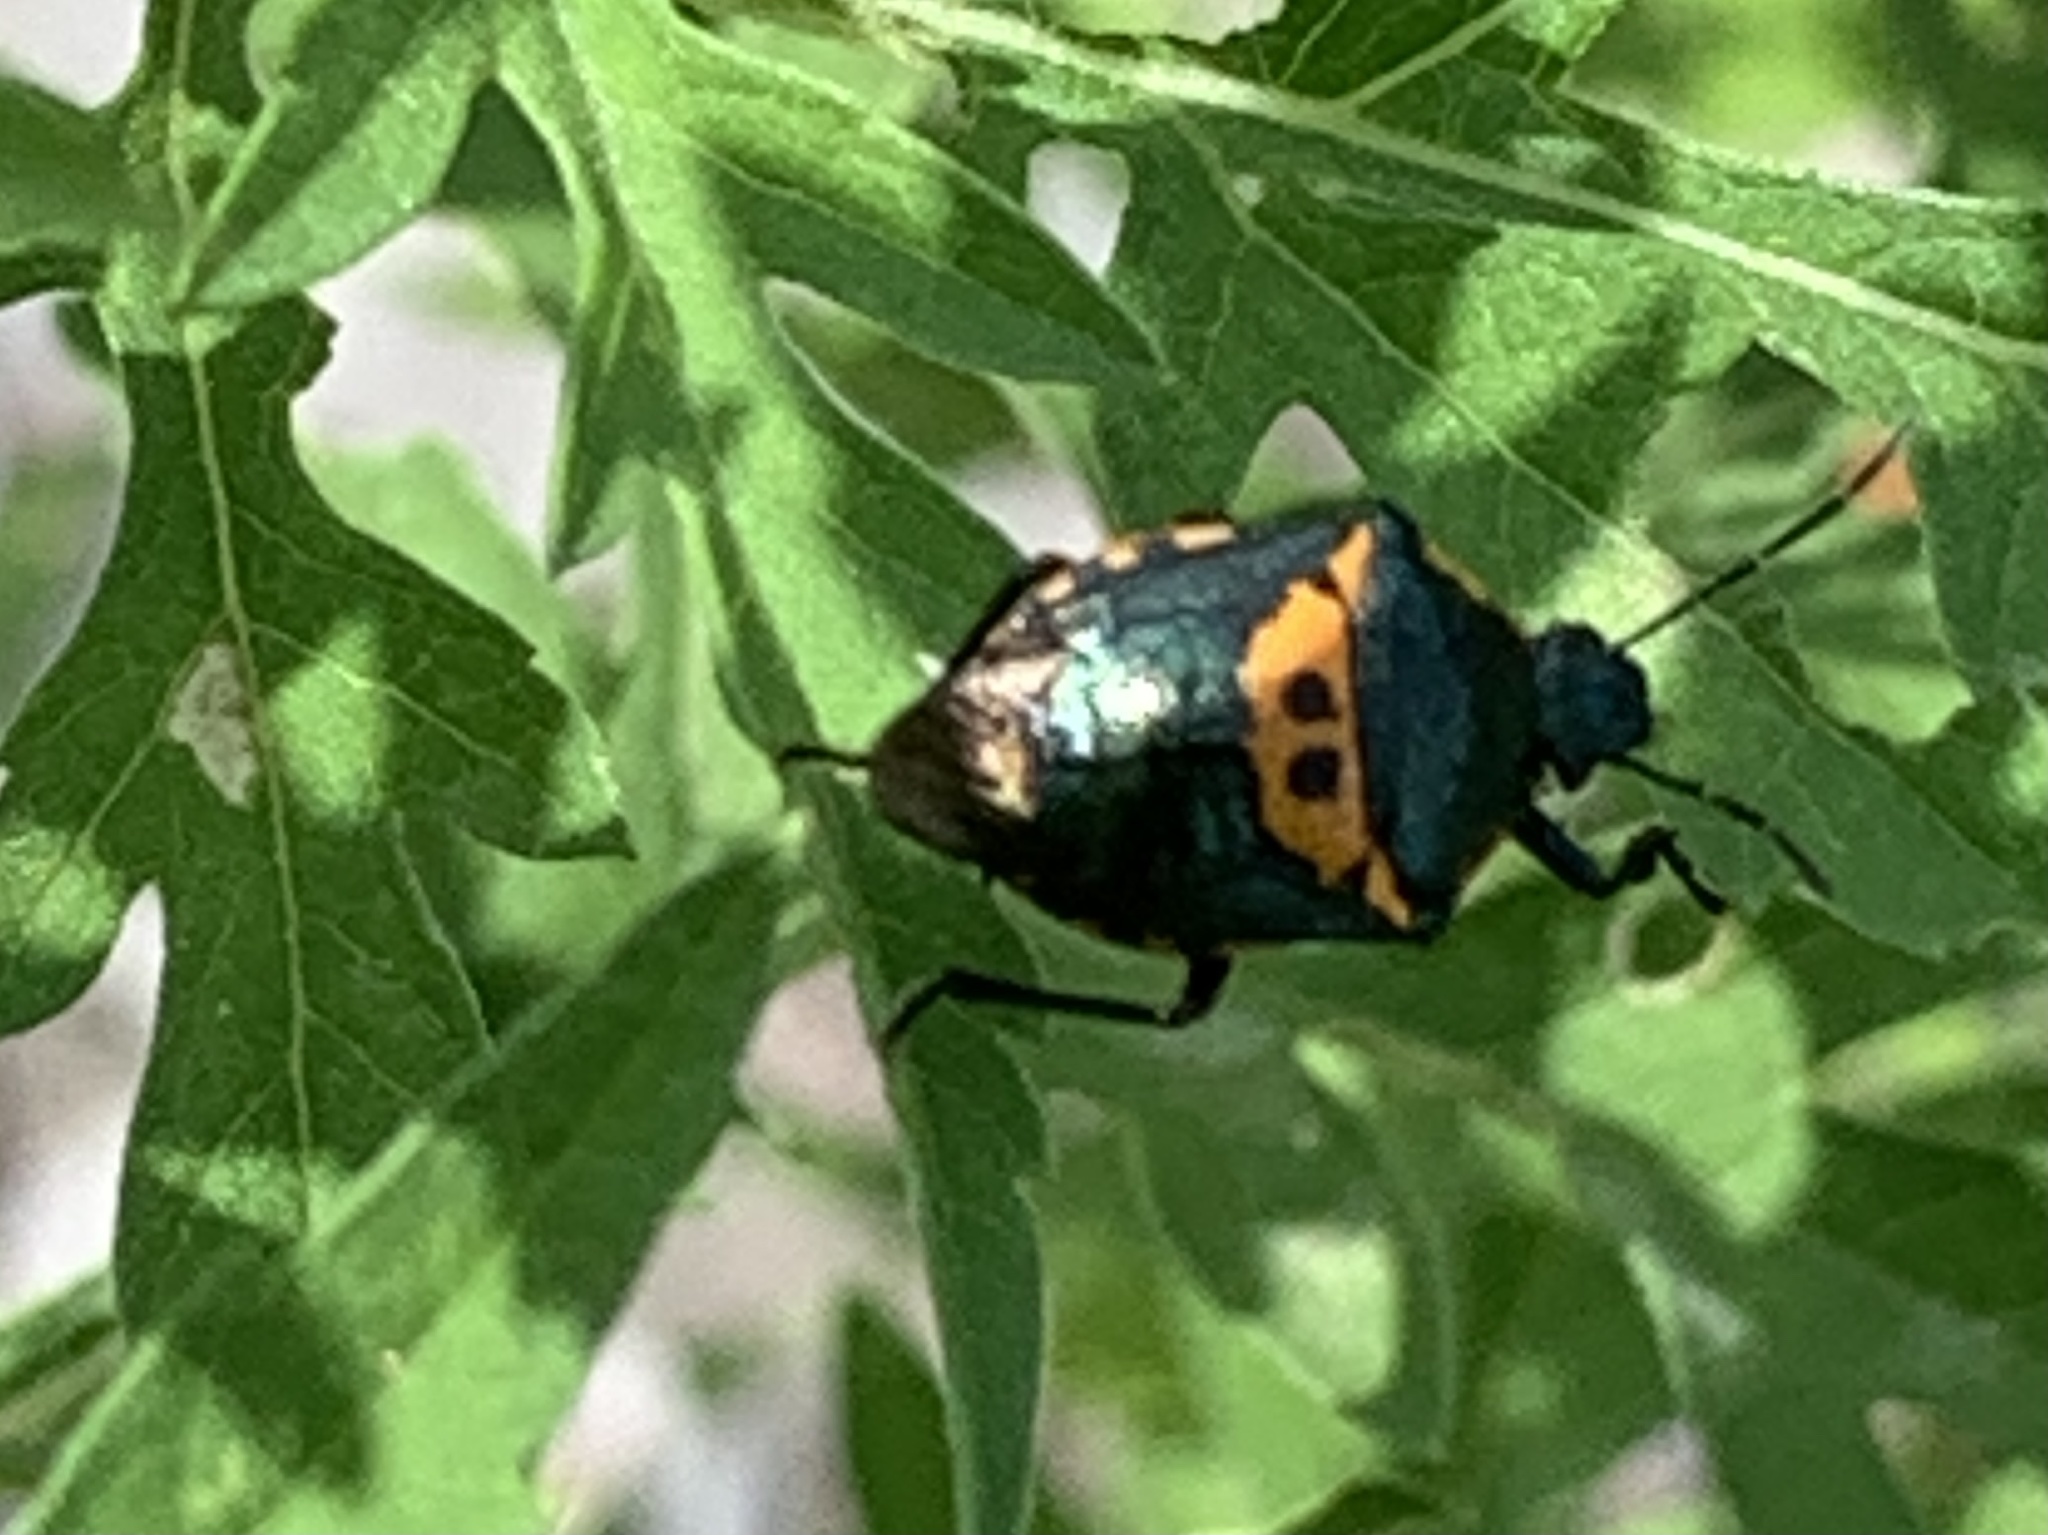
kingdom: Animalia
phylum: Arthropoda
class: Insecta
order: Hemiptera
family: Pentatomidae
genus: Stiretrus
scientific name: Stiretrus anchorago
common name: Anchor stink bug
